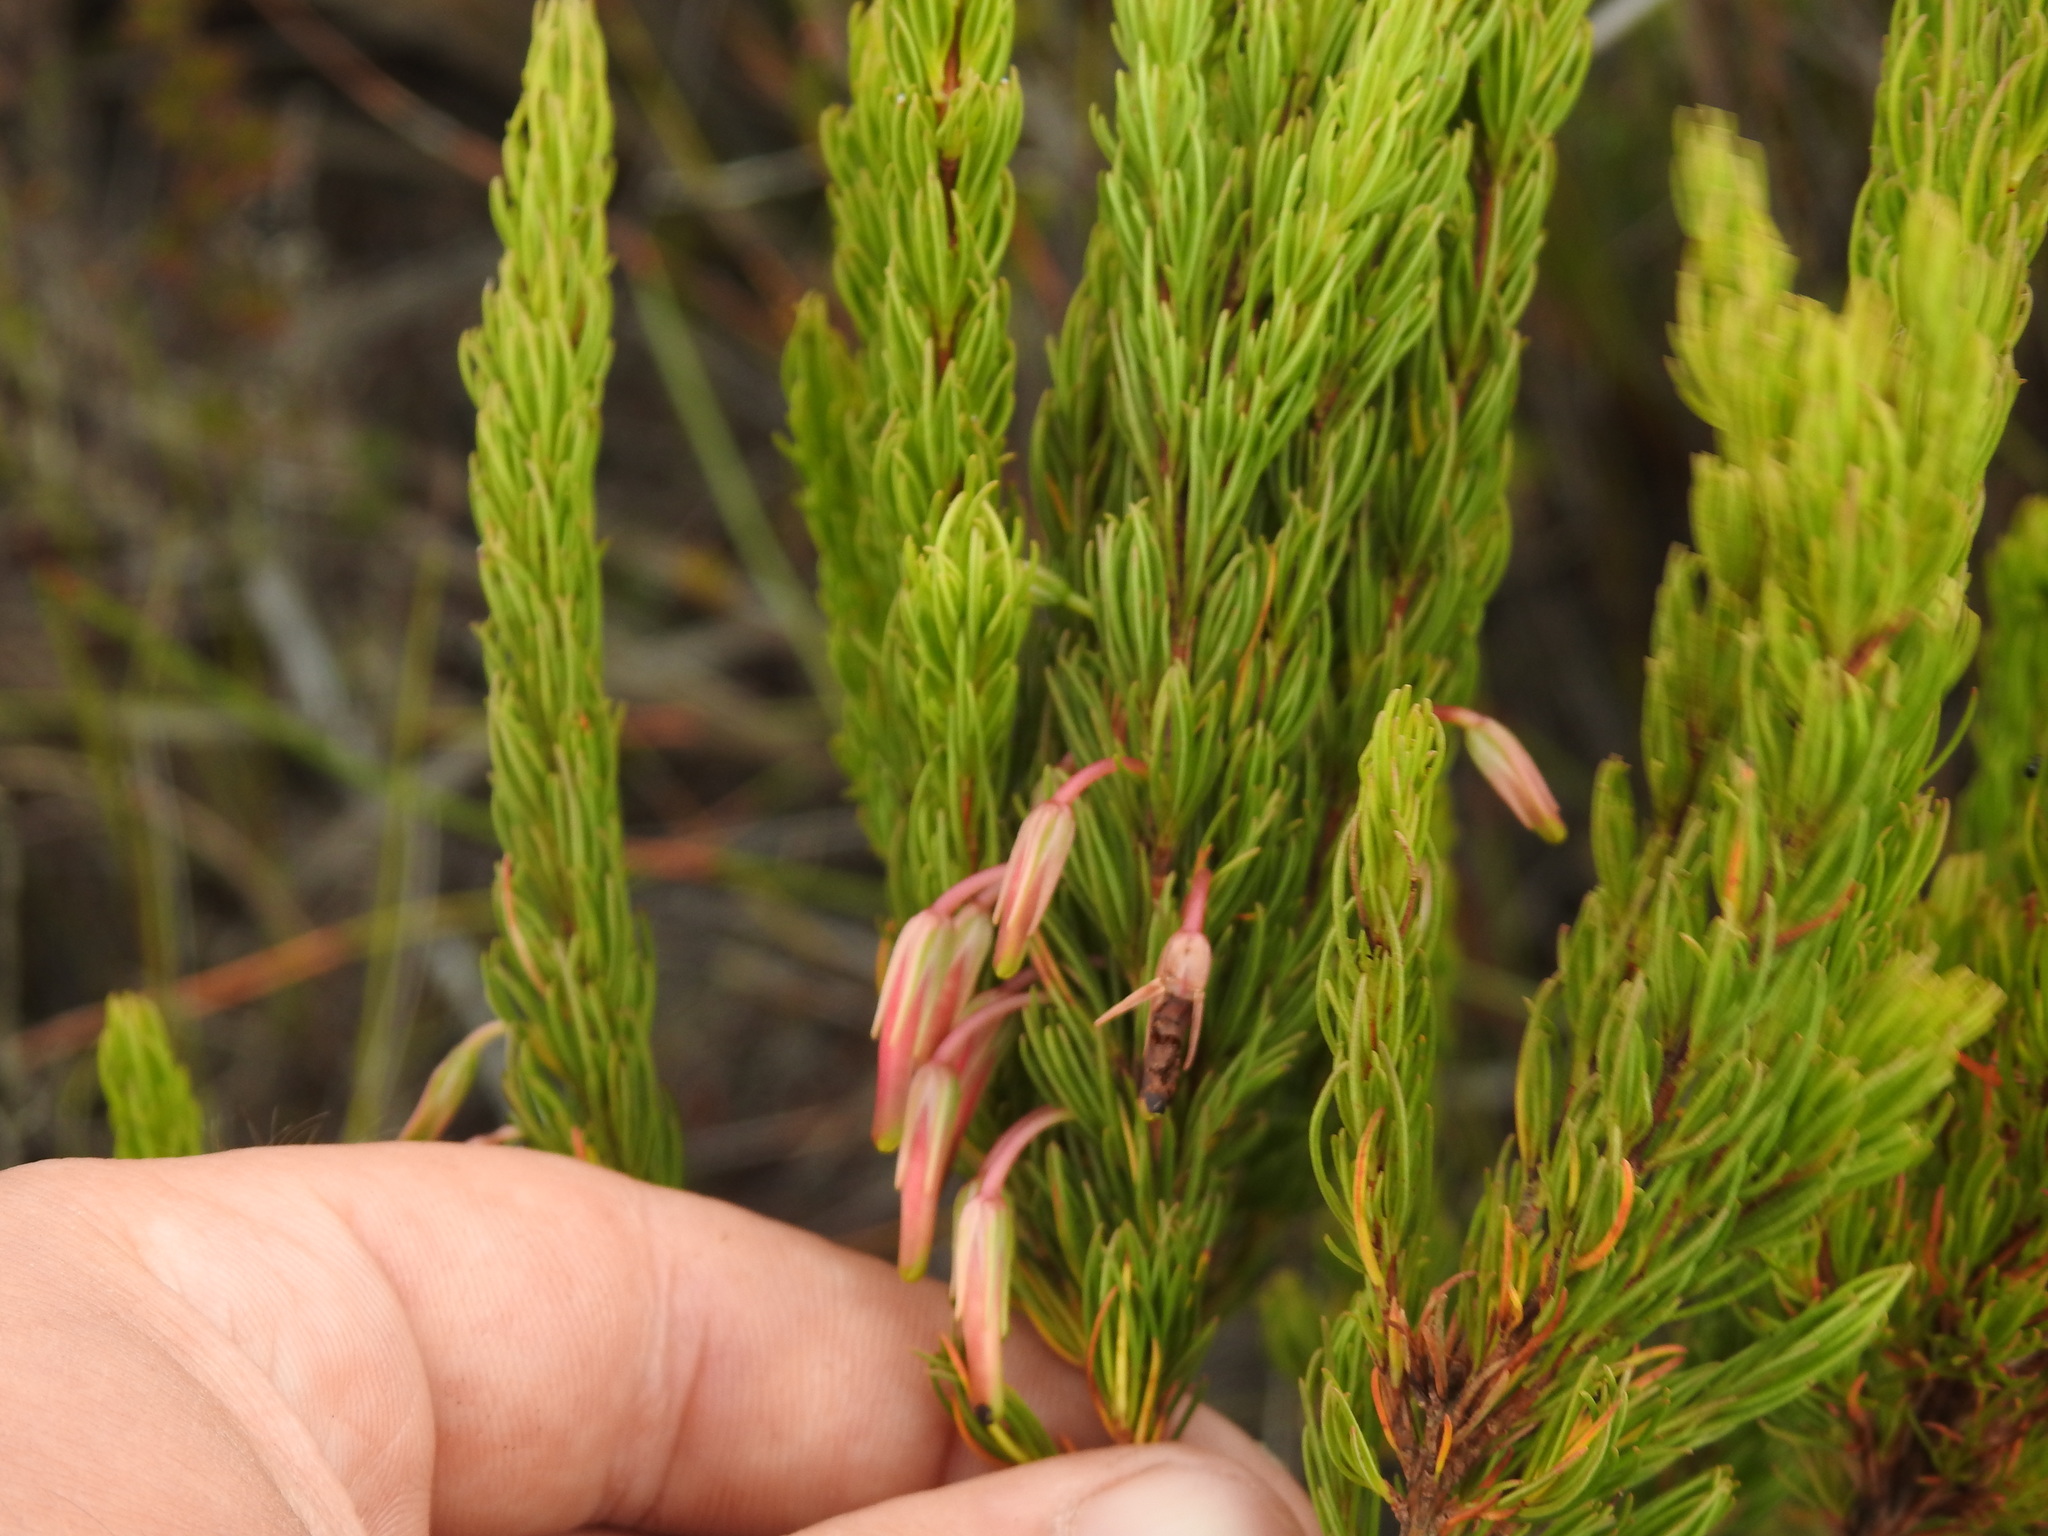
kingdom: Plantae
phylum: Tracheophyta
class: Magnoliopsida
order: Ericales
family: Ericaceae
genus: Erica
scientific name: Erica plukenetii
